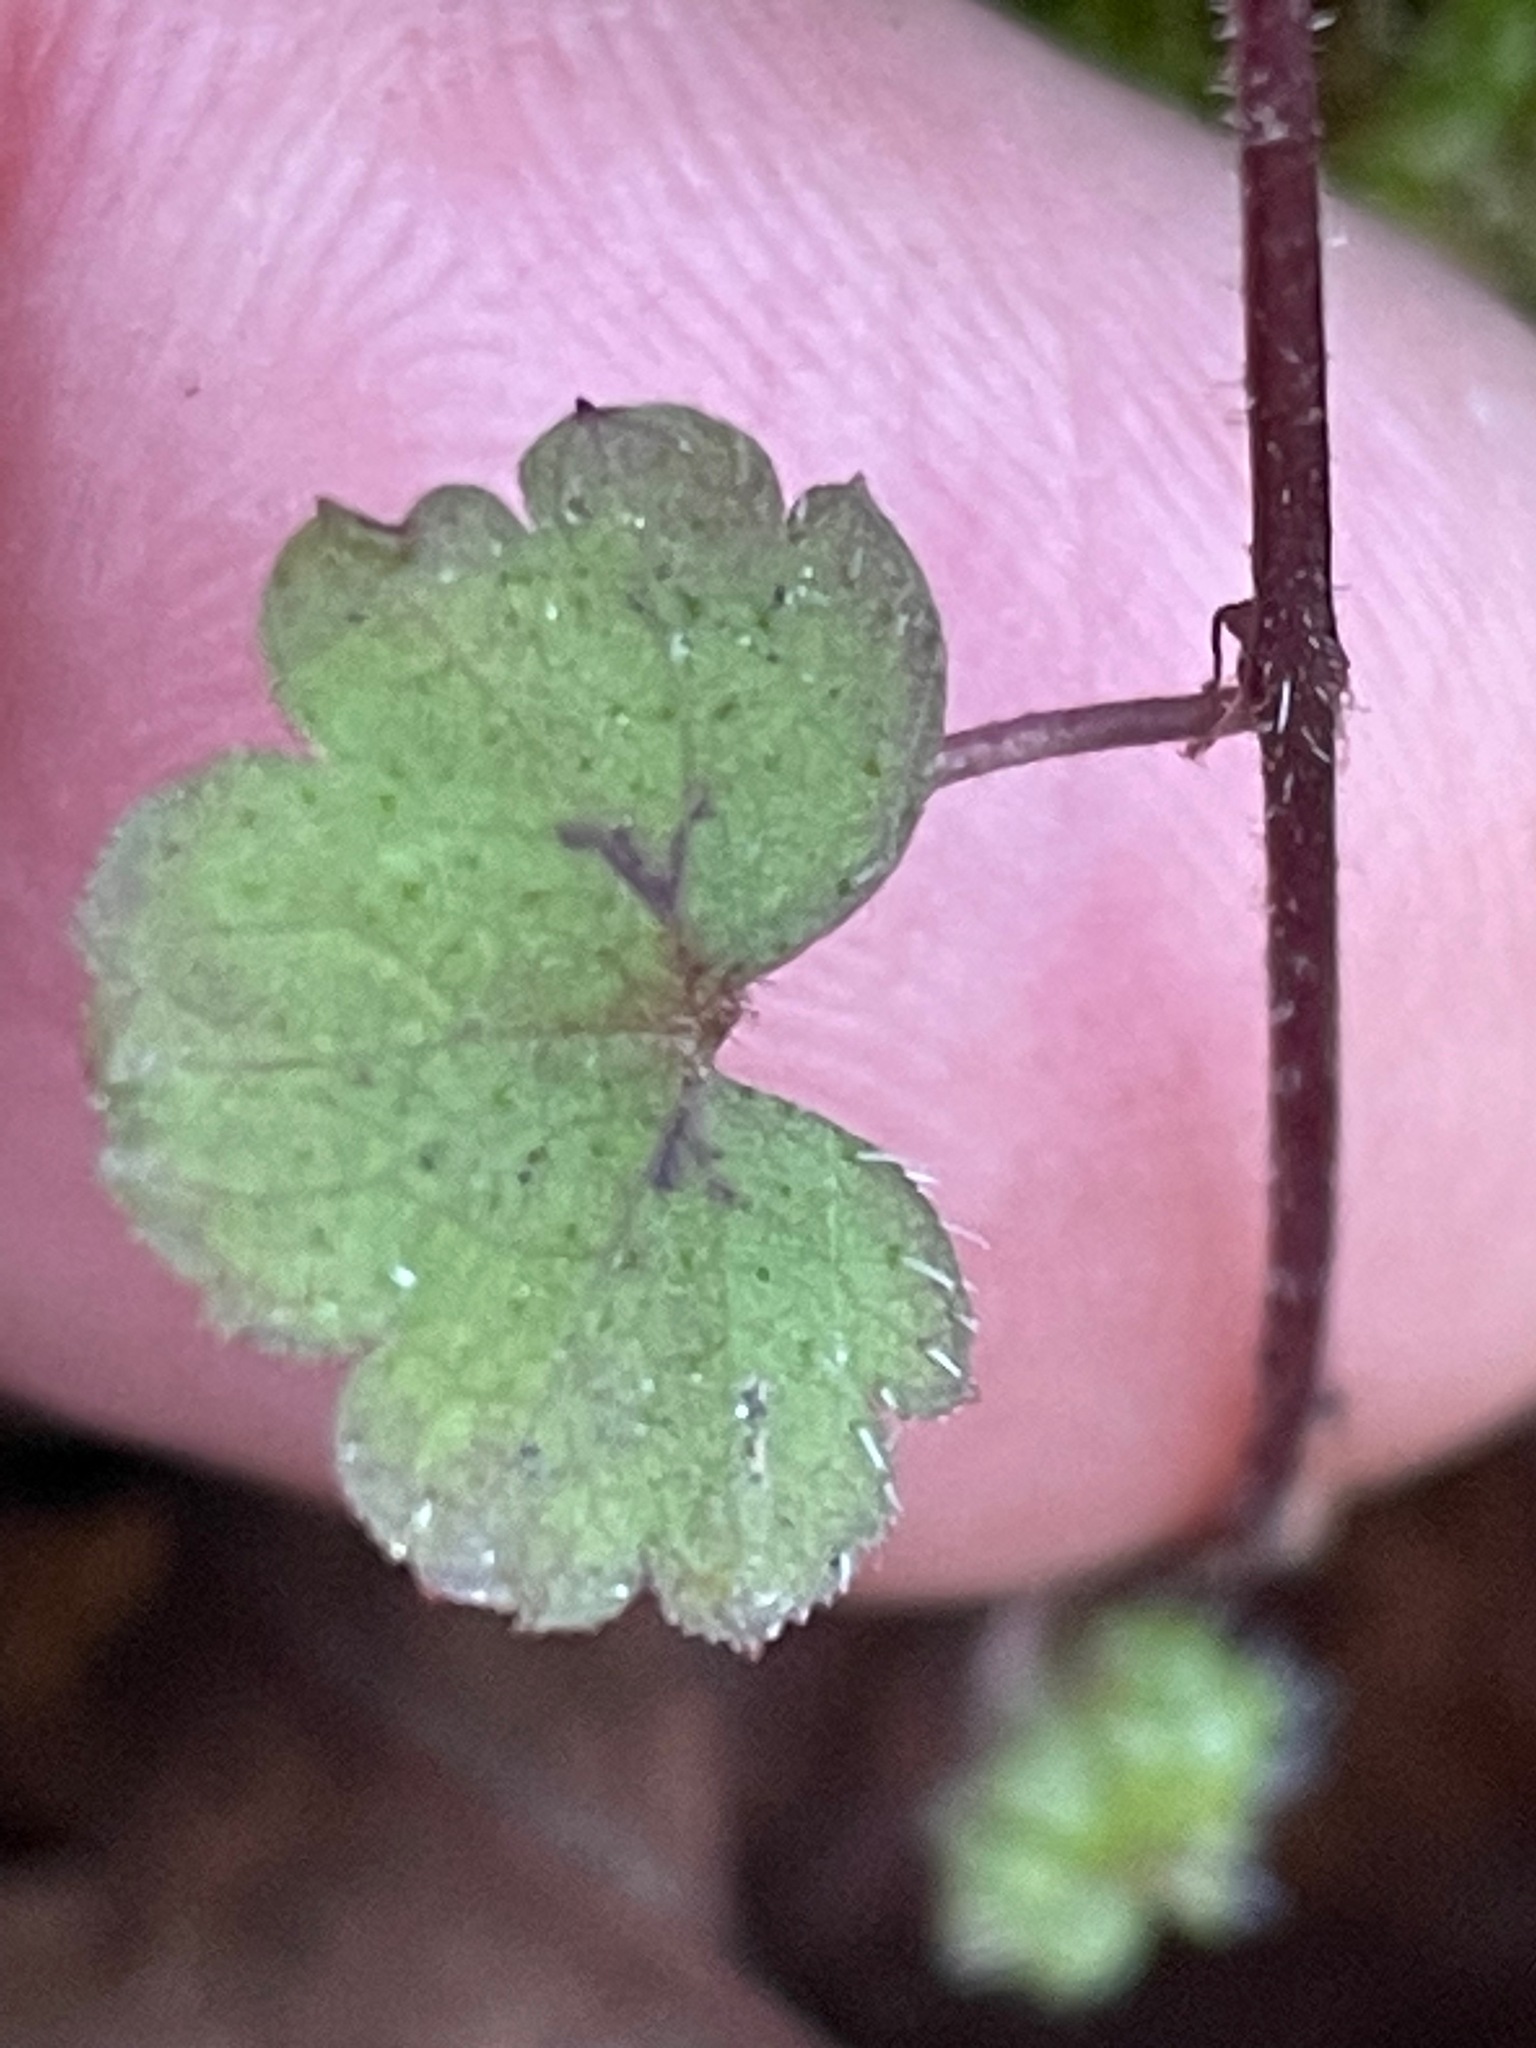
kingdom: Plantae
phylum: Tracheophyta
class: Magnoliopsida
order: Saxifragales
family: Saxifragaceae
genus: Tiarella
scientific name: Tiarella stolonifera
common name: Stoloniferous foamflower
